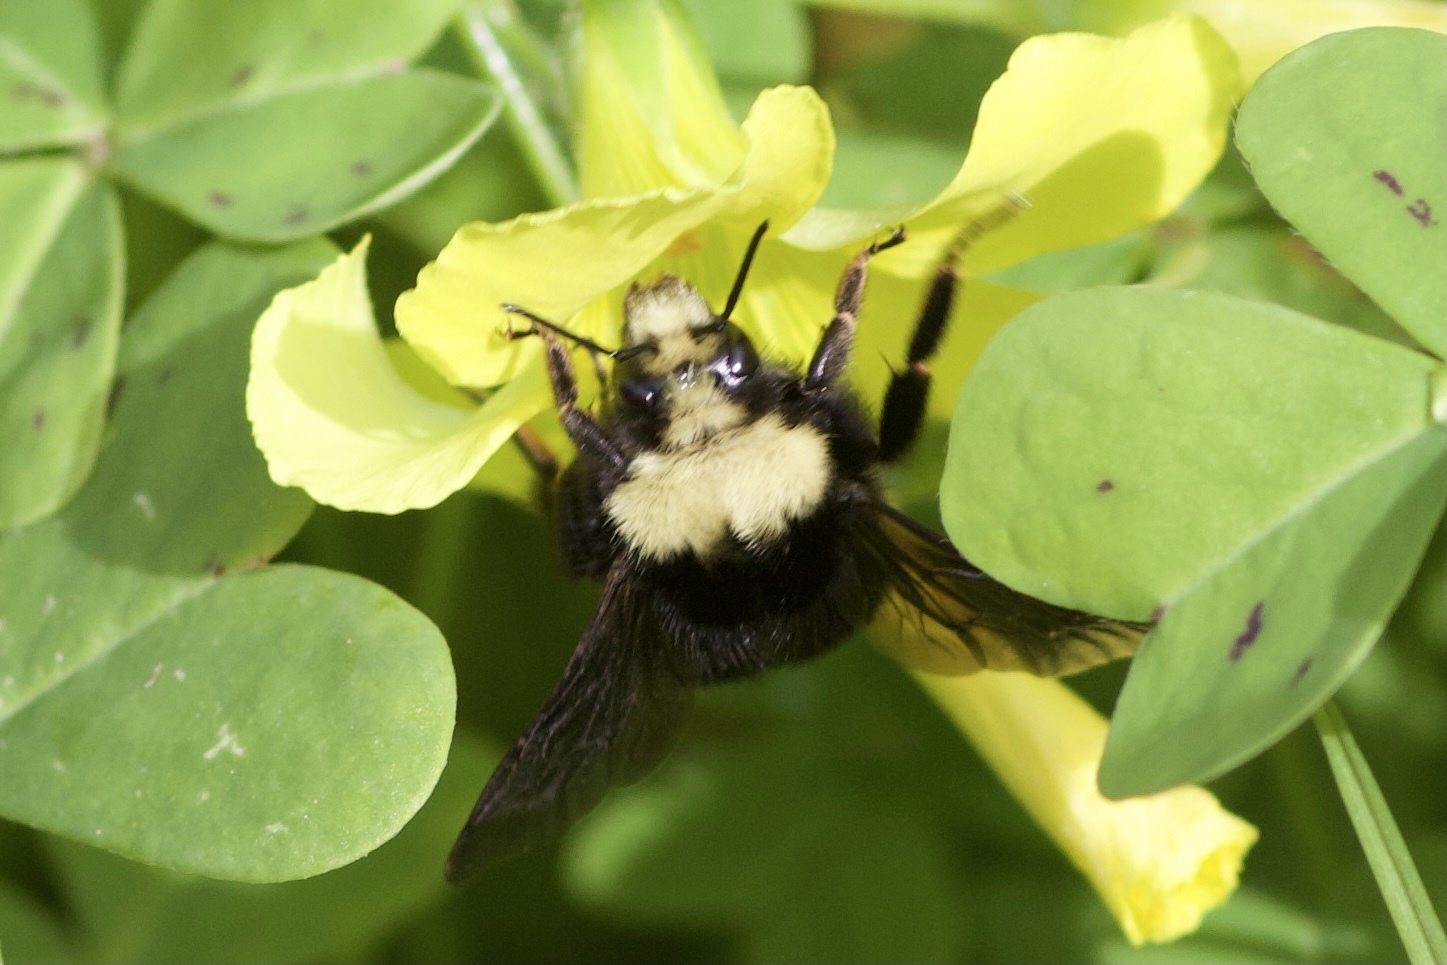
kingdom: Animalia
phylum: Arthropoda
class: Insecta
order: Hymenoptera
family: Apidae
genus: Bombus
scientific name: Bombus vosnesenskii
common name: Vosnesensky bumble bee
